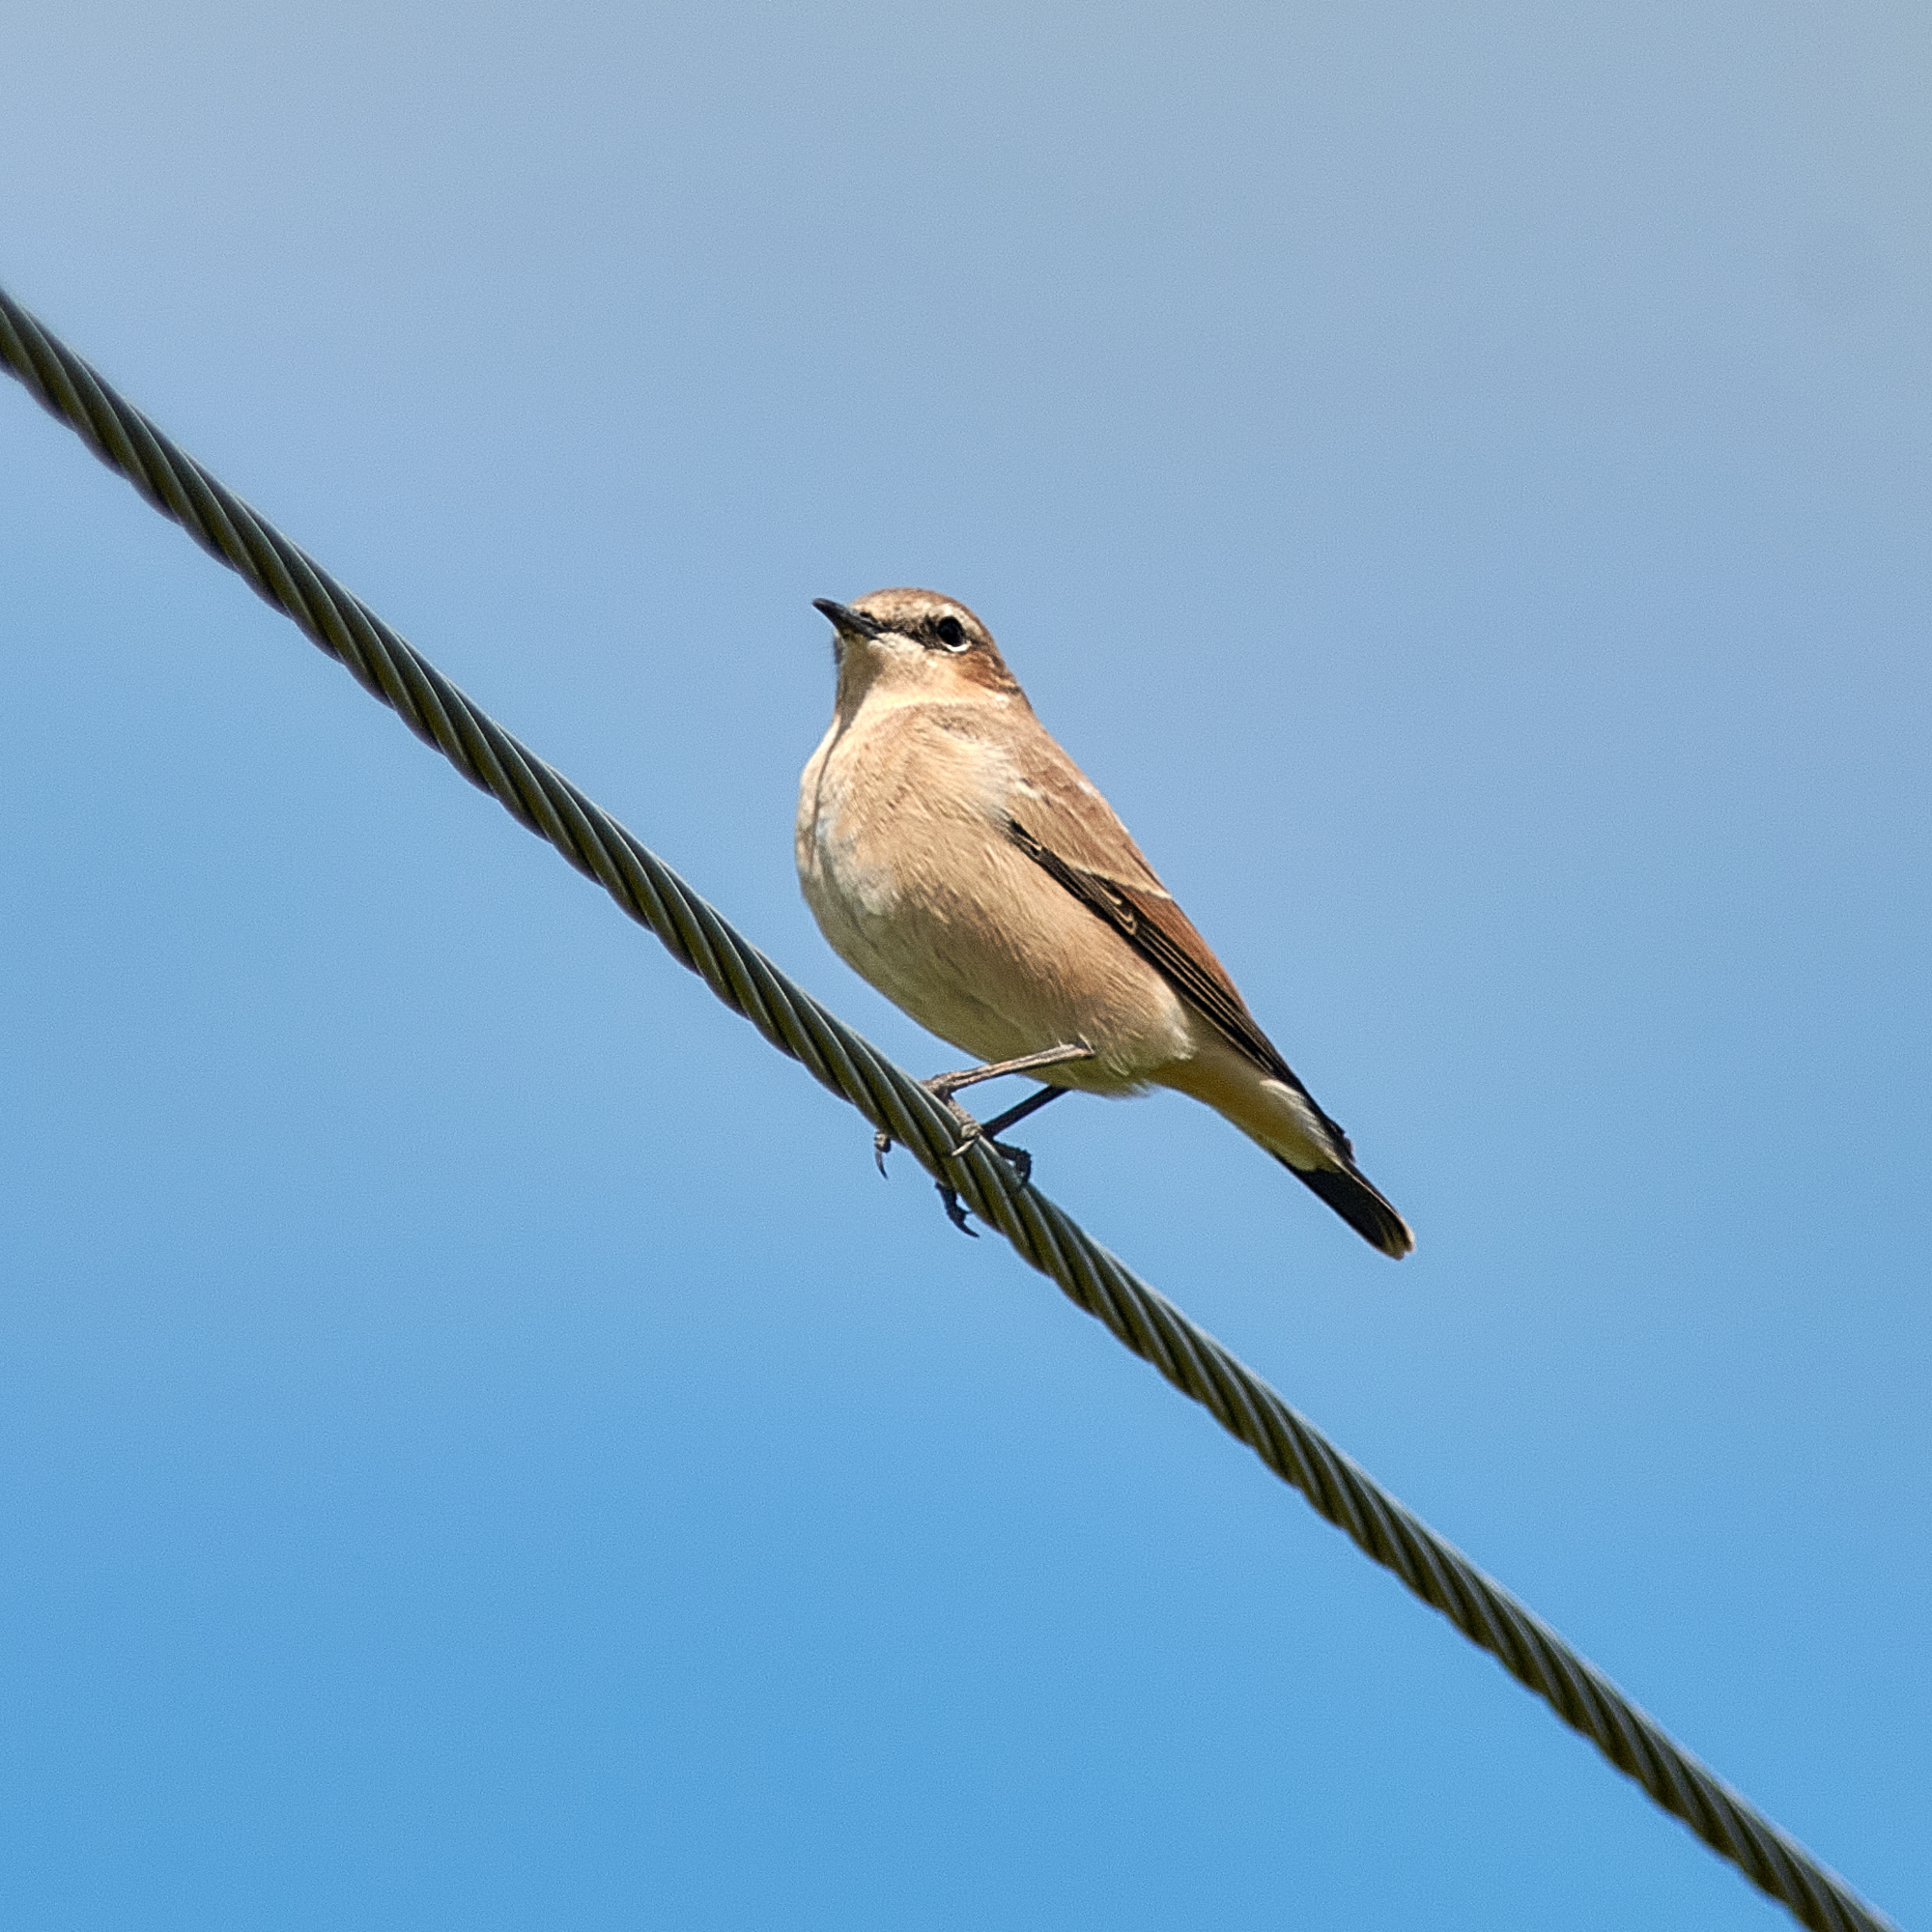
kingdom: Animalia
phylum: Chordata
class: Aves
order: Passeriformes
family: Muscicapidae
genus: Oenanthe
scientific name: Oenanthe oenanthe
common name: Northern wheatear
